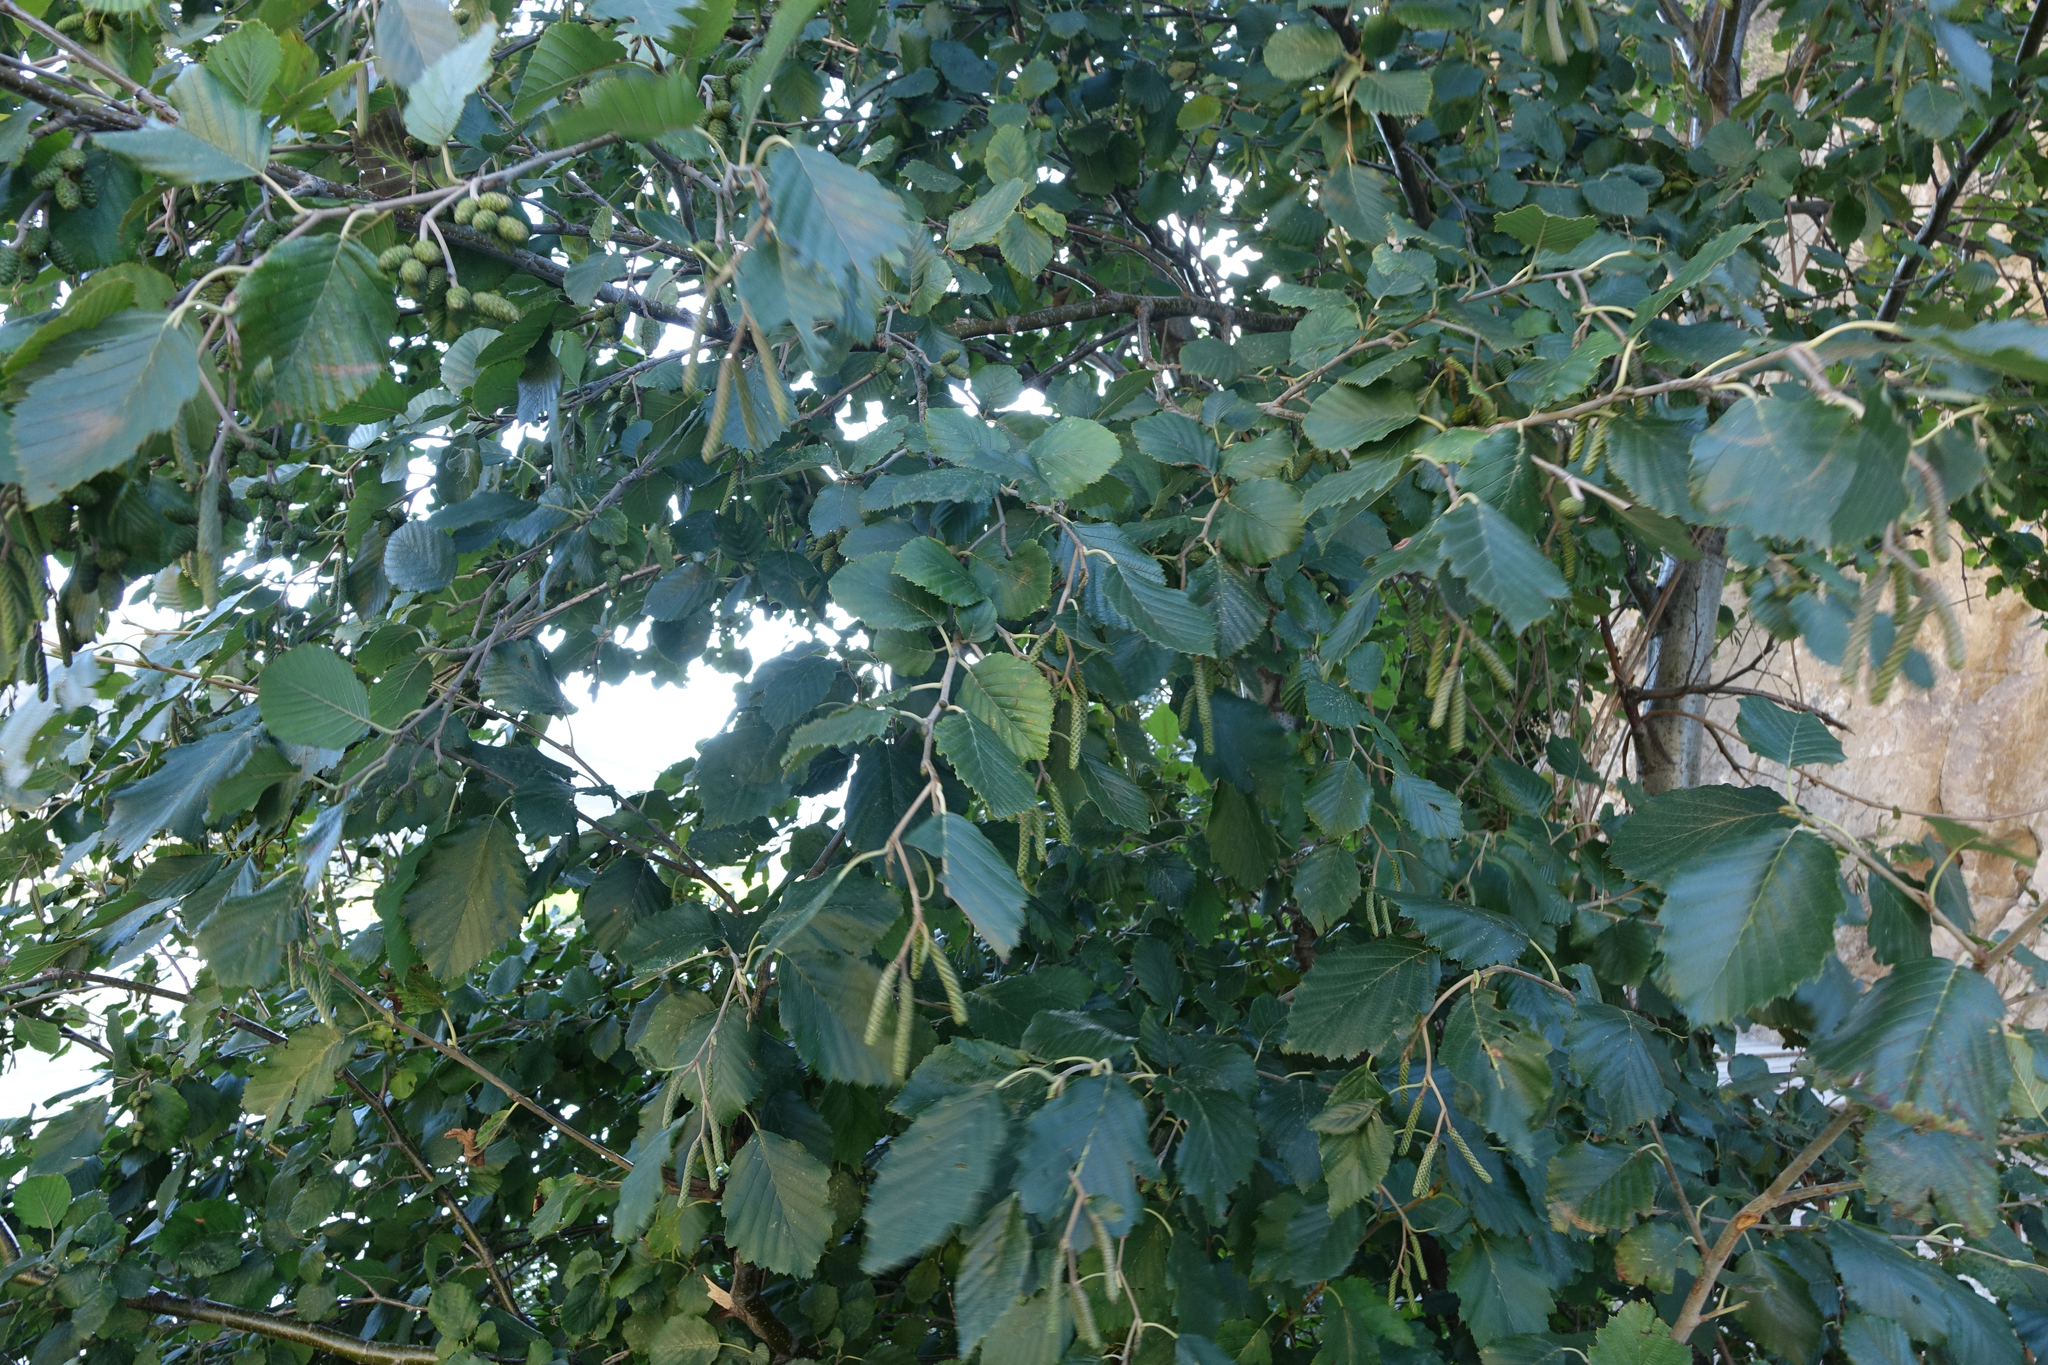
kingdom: Plantae
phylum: Tracheophyta
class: Magnoliopsida
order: Fagales
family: Betulaceae
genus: Alnus
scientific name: Alnus incana
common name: Grey alder
